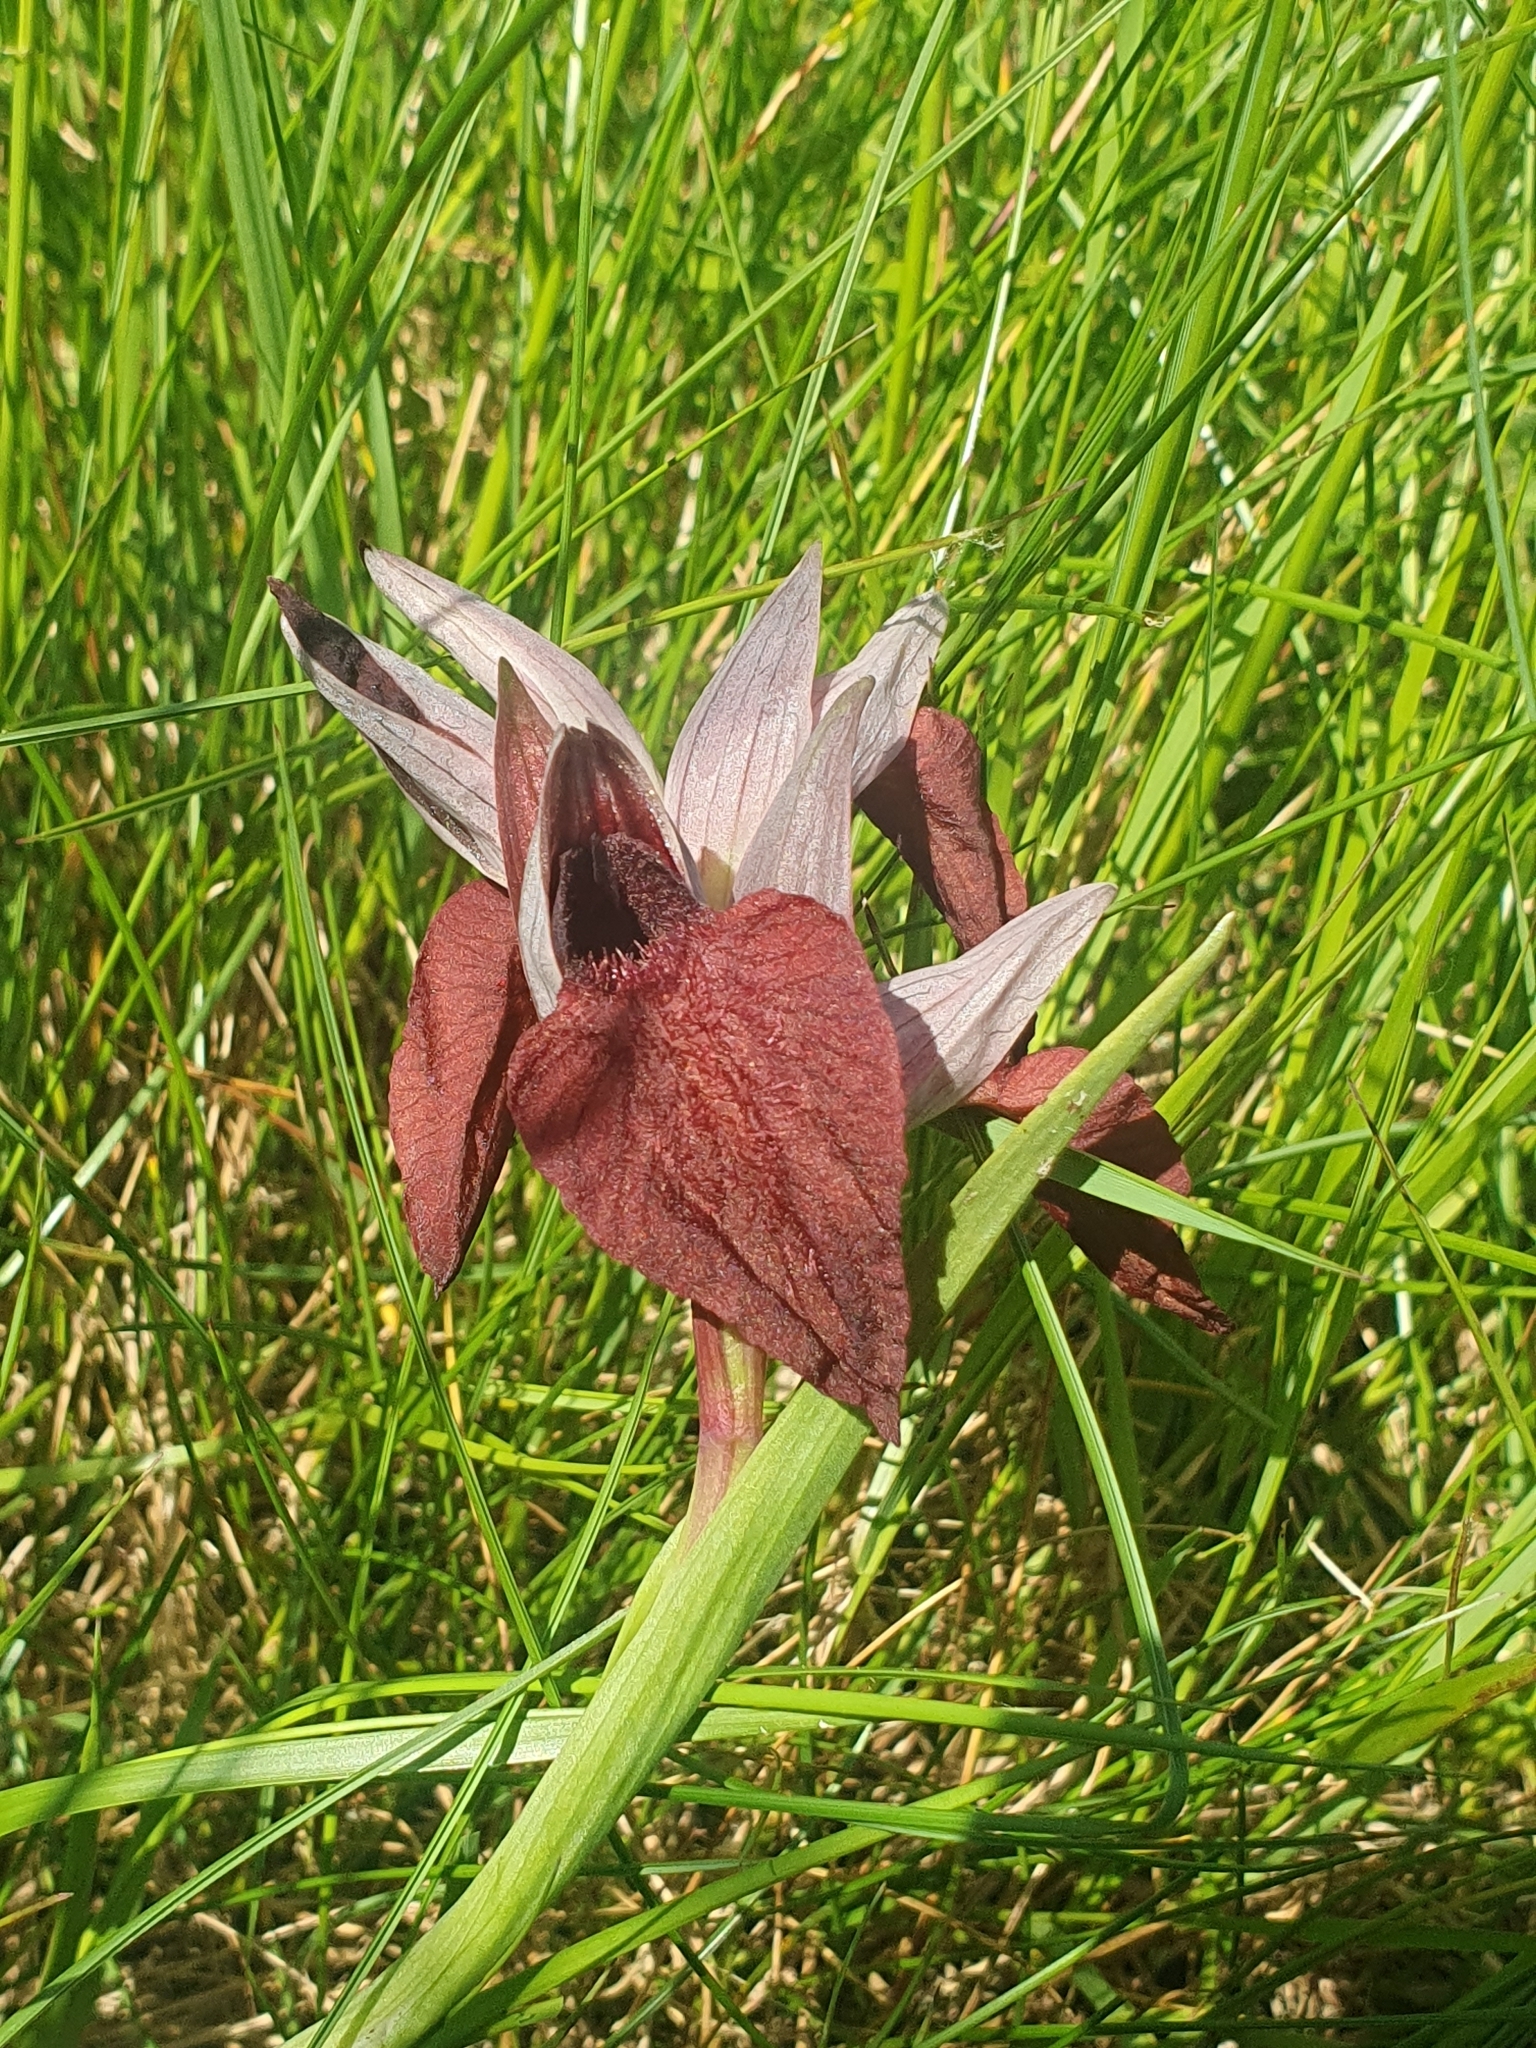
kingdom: Plantae
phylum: Tracheophyta
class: Liliopsida
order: Asparagales
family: Orchidaceae
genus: Serapias
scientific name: Serapias cordigera
